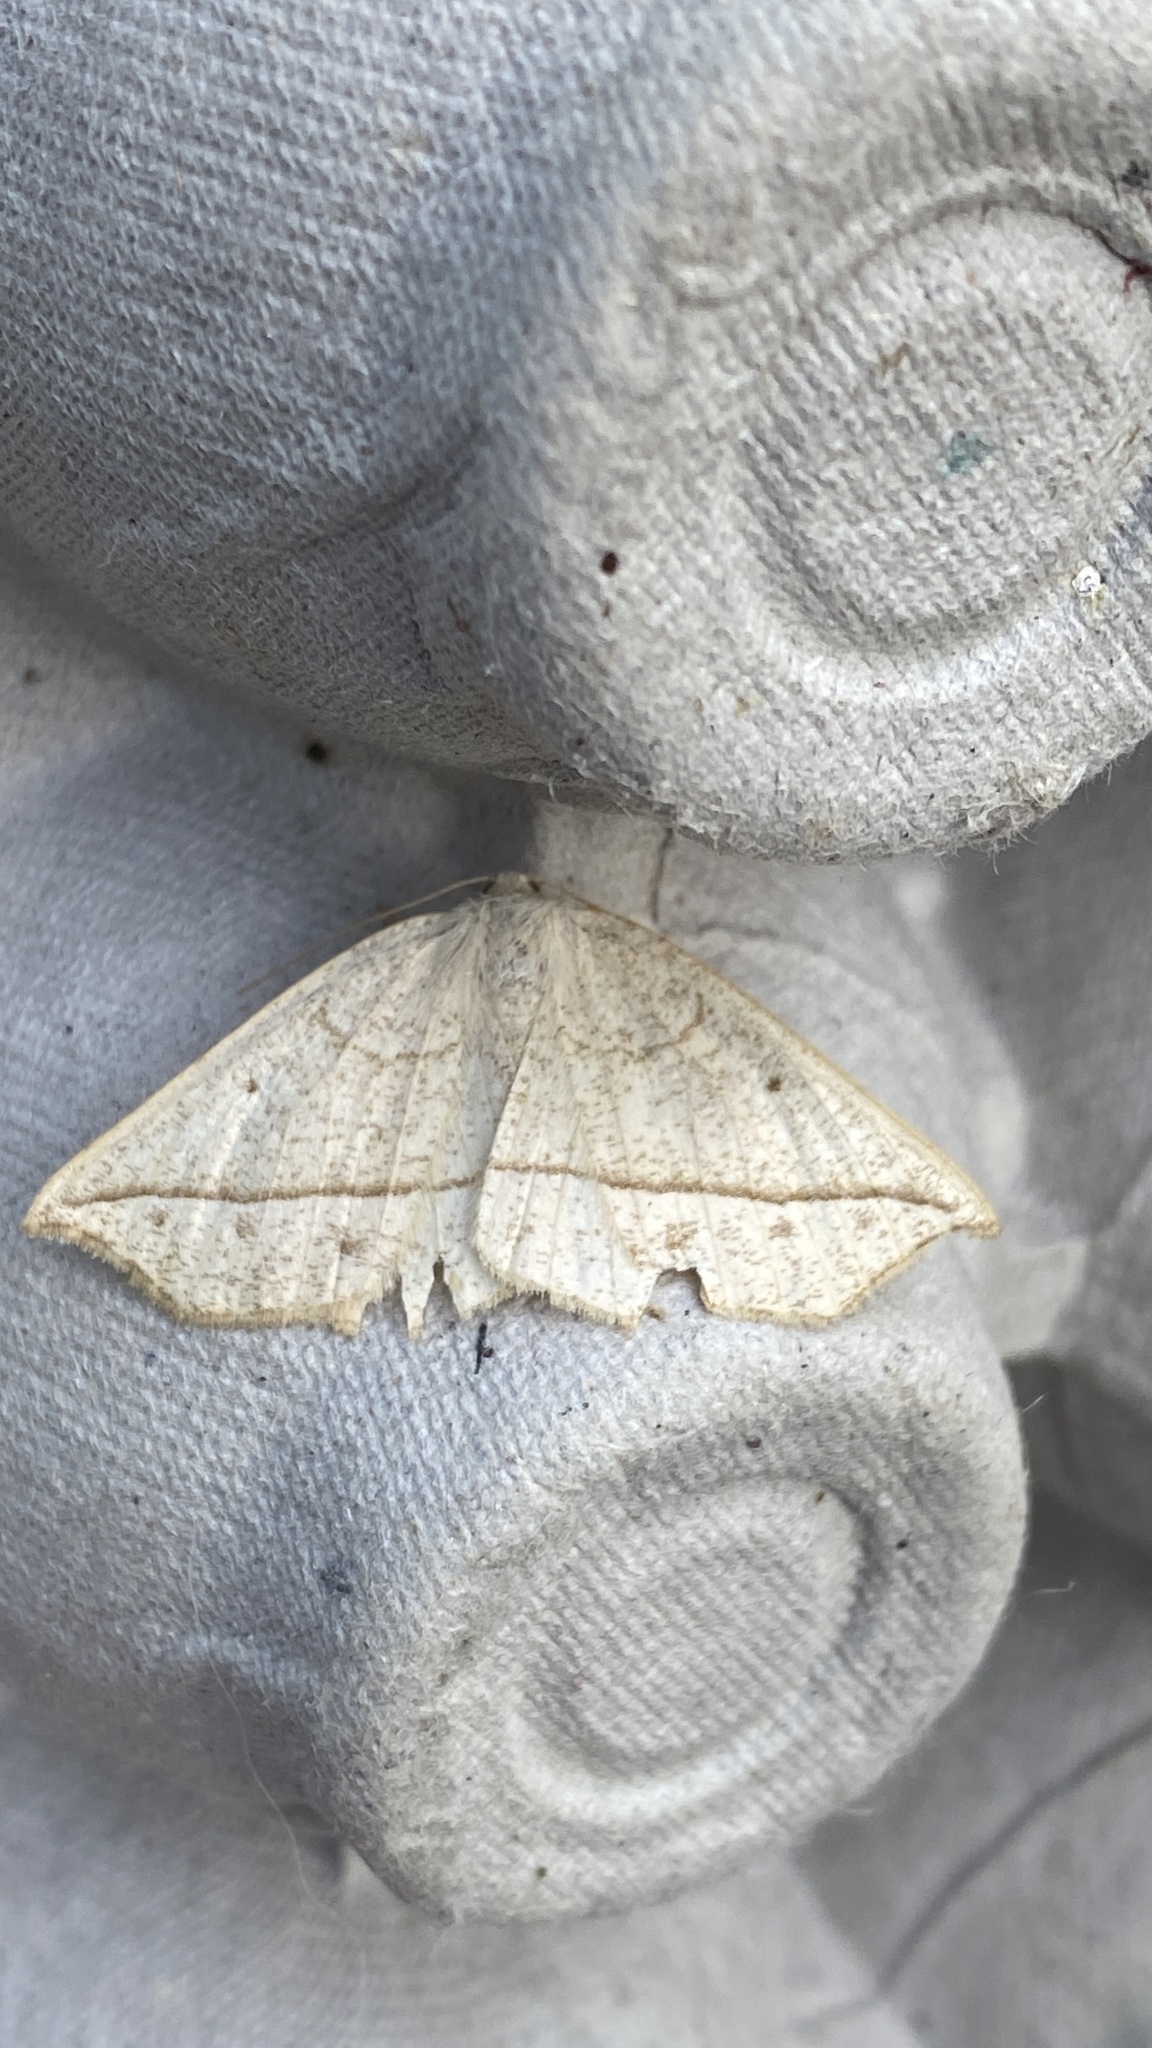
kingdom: Animalia
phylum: Arthropoda
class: Insecta
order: Lepidoptera
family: Geometridae
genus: Eusarca
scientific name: Eusarca confusaria
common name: Confused eusarca
